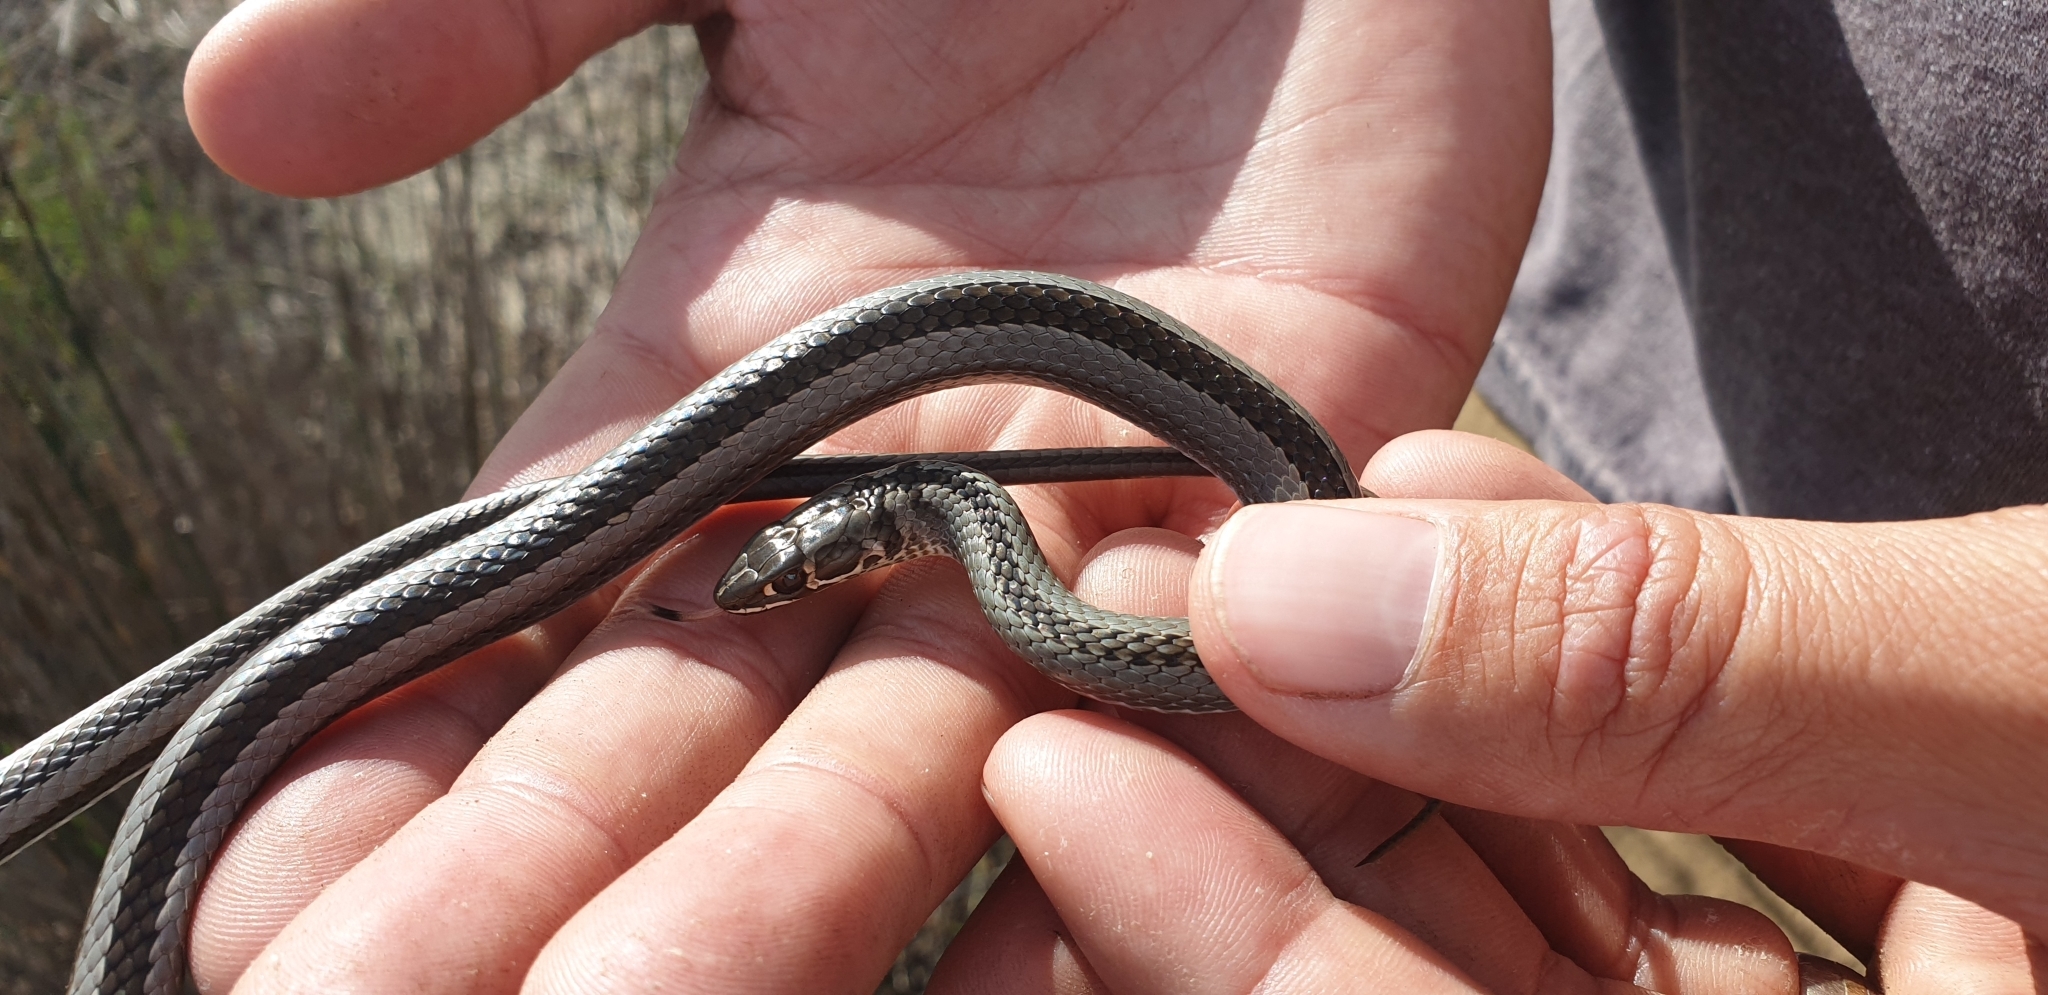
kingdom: Animalia
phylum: Chordata
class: Squamata
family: Psammophiidae
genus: Psammophis
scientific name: Psammophis crucifer
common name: Cross-marked grass snake
